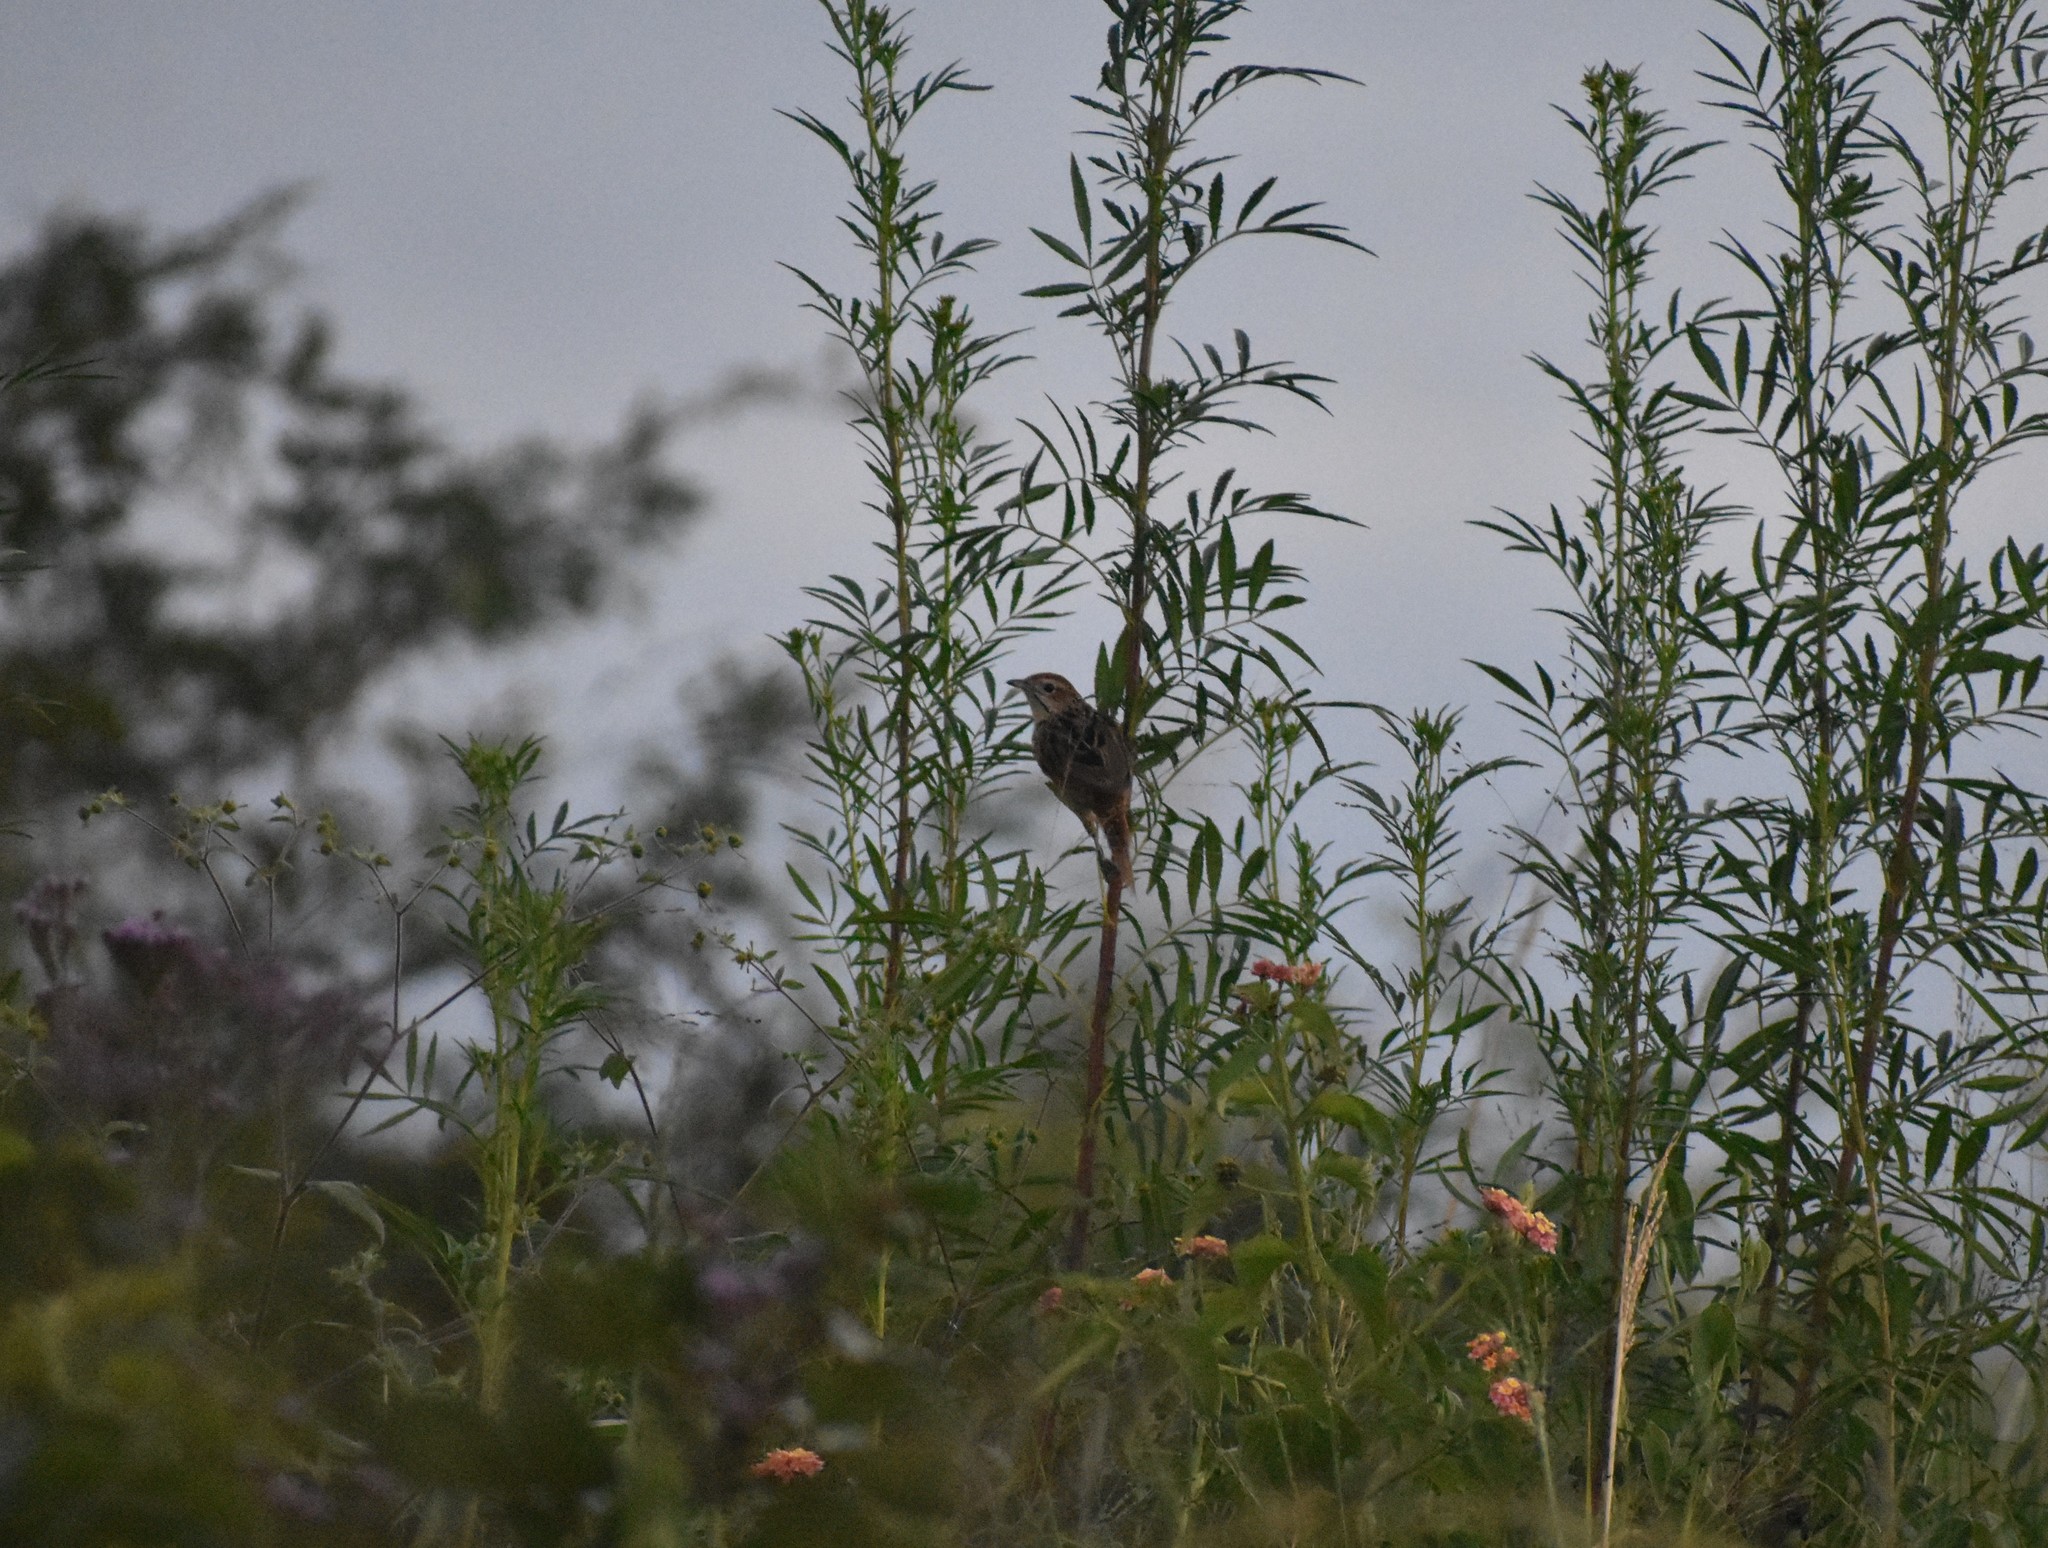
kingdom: Animalia
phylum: Chordata
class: Aves
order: Passeriformes
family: Macrosphenidae
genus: Sphenoeacus
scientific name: Sphenoeacus afer
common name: Cape grassbird
